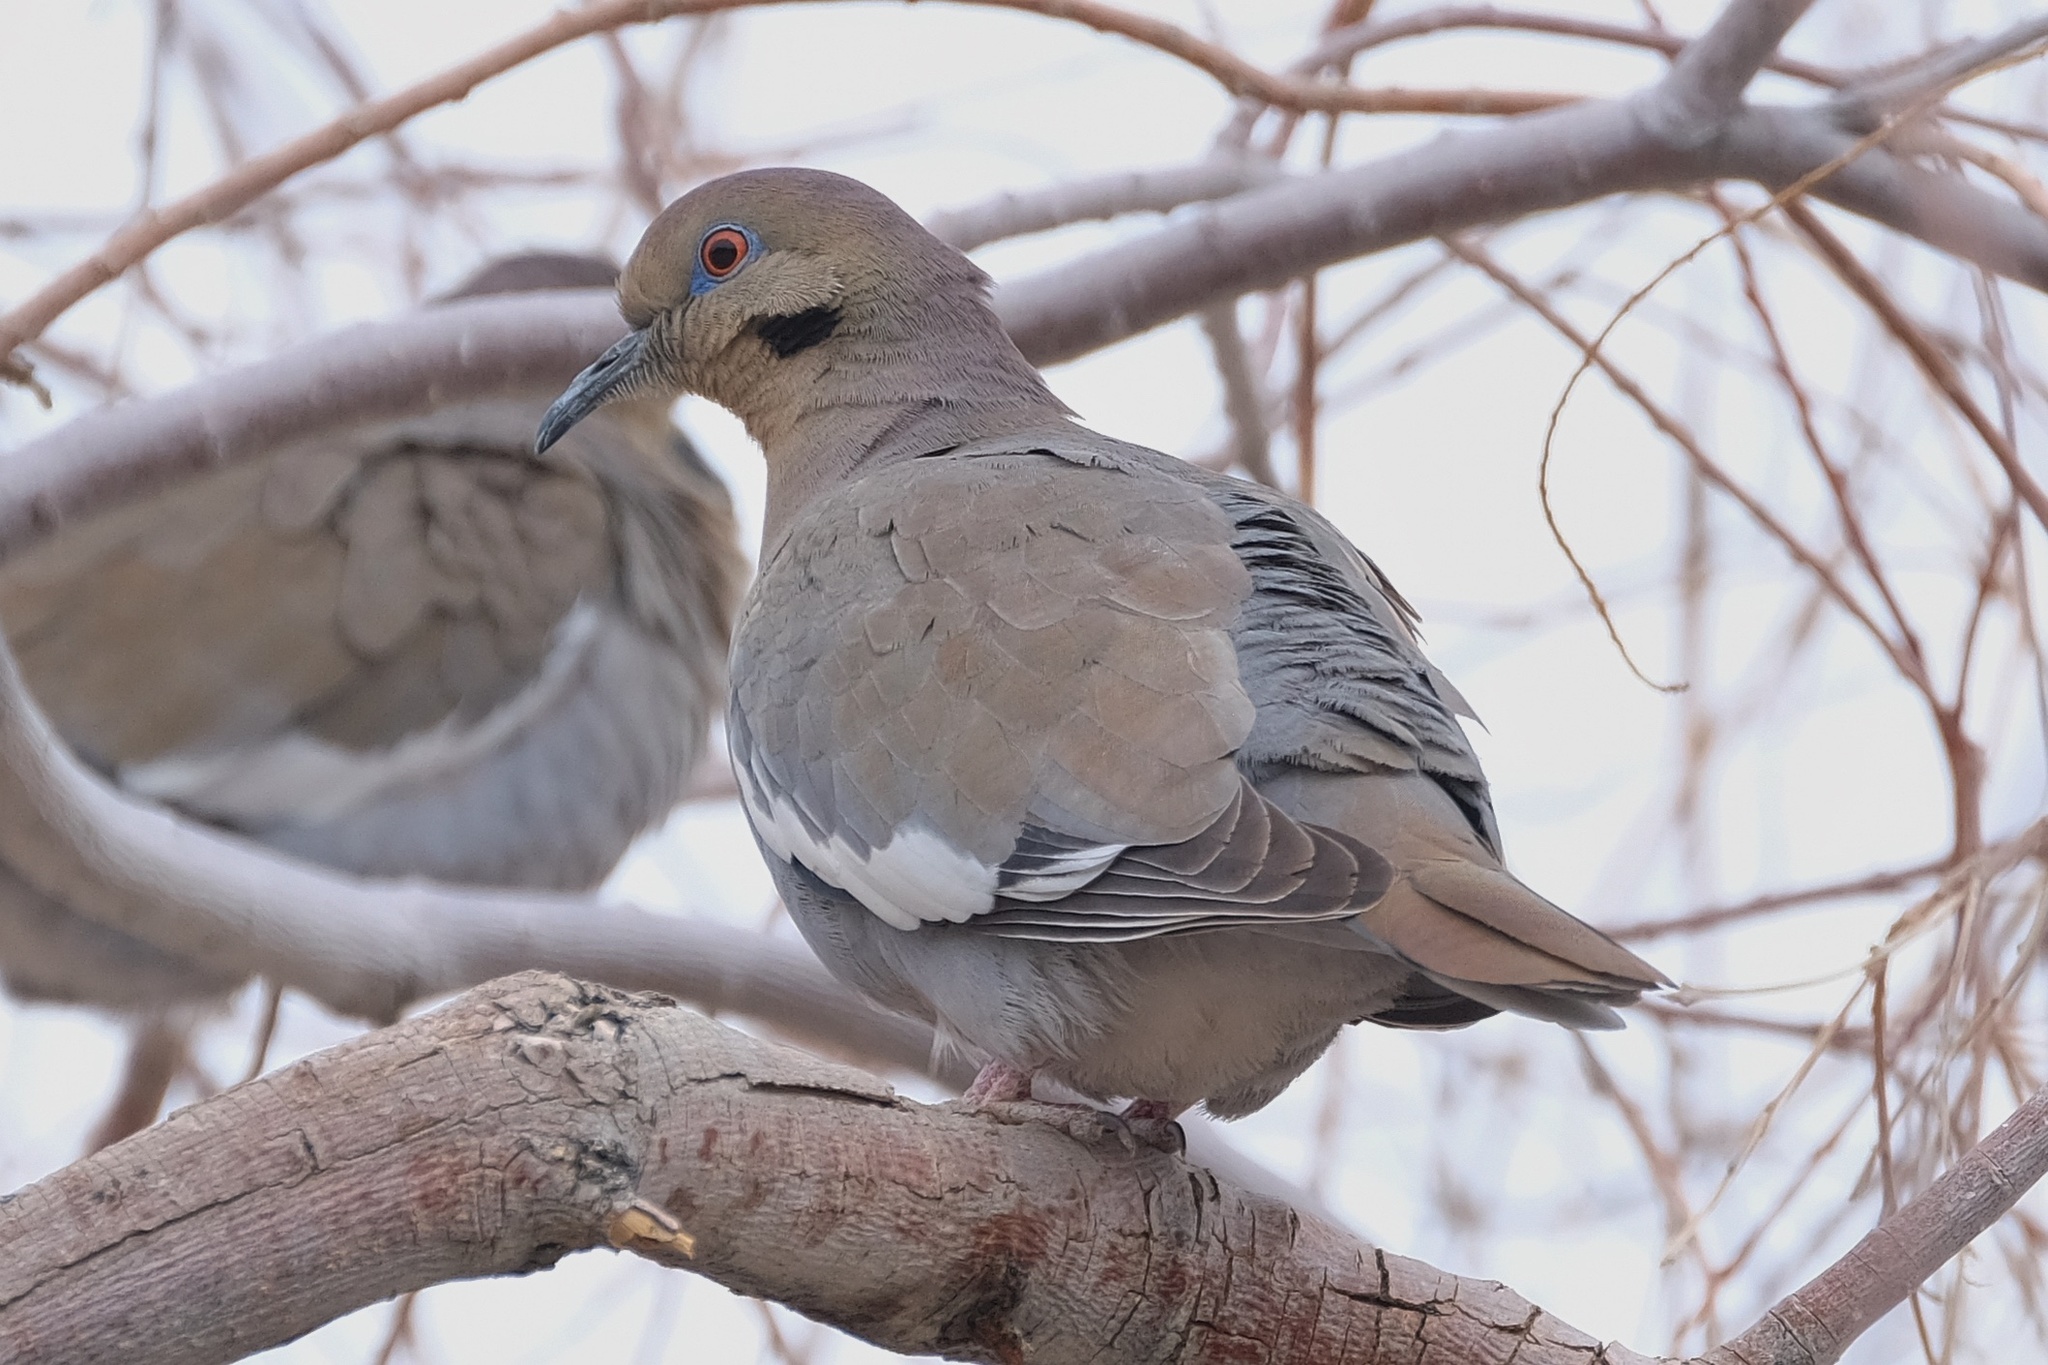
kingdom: Animalia
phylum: Chordata
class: Aves
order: Columbiformes
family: Columbidae
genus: Zenaida
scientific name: Zenaida asiatica
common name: White-winged dove
